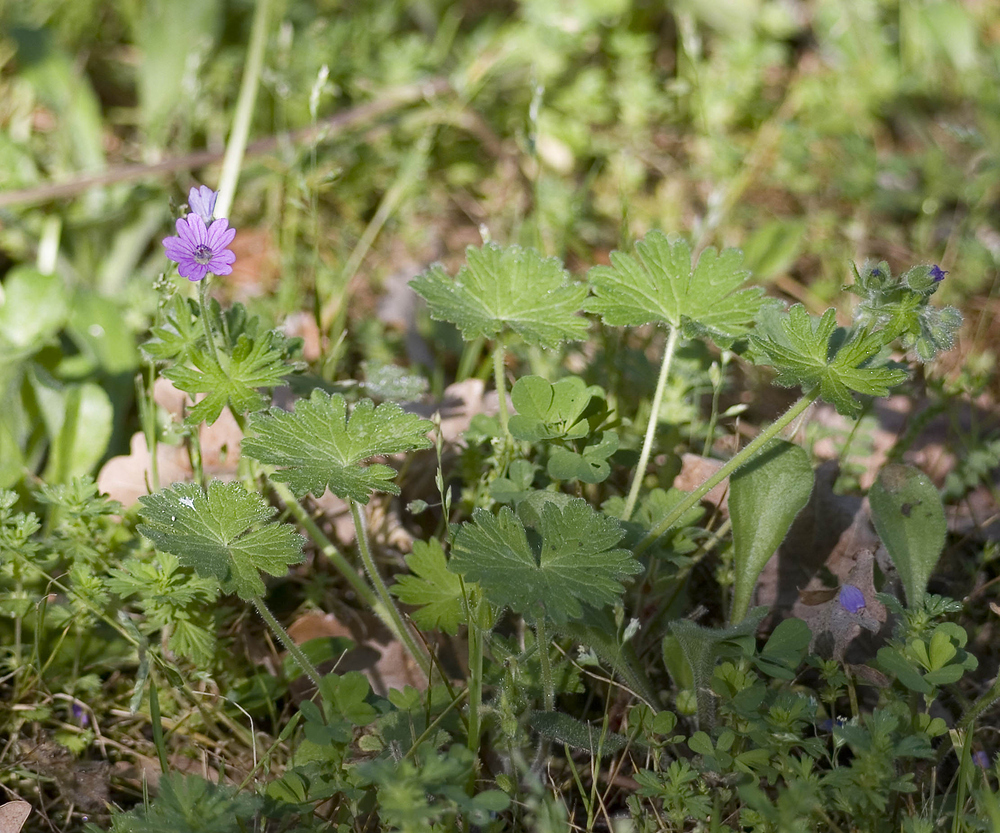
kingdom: Plantae
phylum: Tracheophyta
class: Magnoliopsida
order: Geraniales
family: Geraniaceae
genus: Geranium
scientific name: Geranium molle
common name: Dove's-foot crane's-bill
